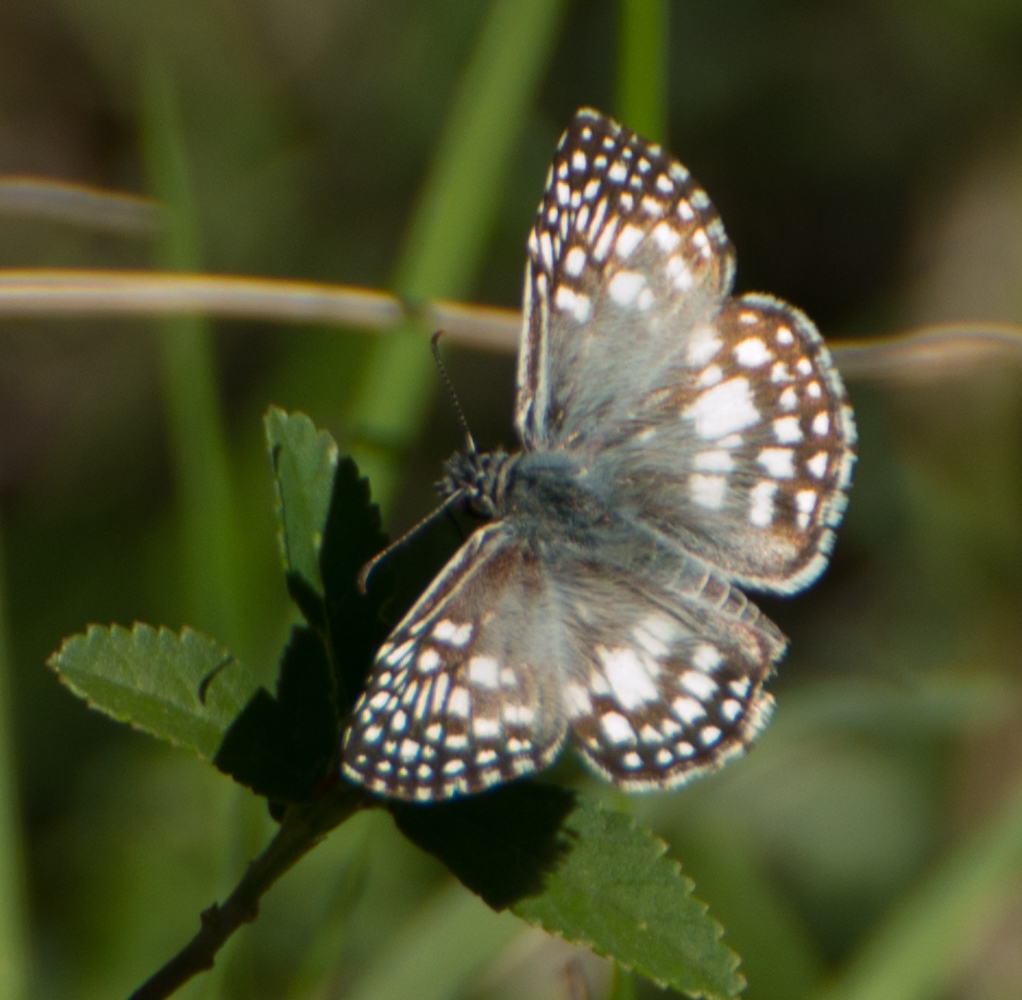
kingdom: Animalia
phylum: Arthropoda
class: Insecta
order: Lepidoptera
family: Hesperiidae
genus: Pyrgus
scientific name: Pyrgus oileus
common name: Tropical checkered-skipper
